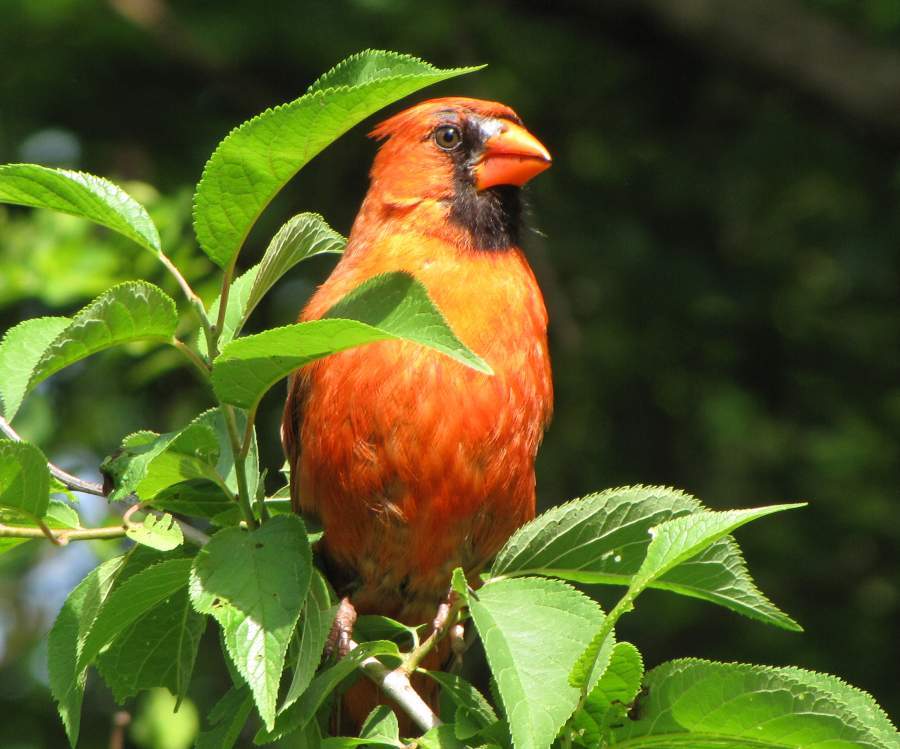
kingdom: Animalia
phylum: Chordata
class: Aves
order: Passeriformes
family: Cardinalidae
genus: Cardinalis
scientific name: Cardinalis cardinalis
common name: Northern cardinal
